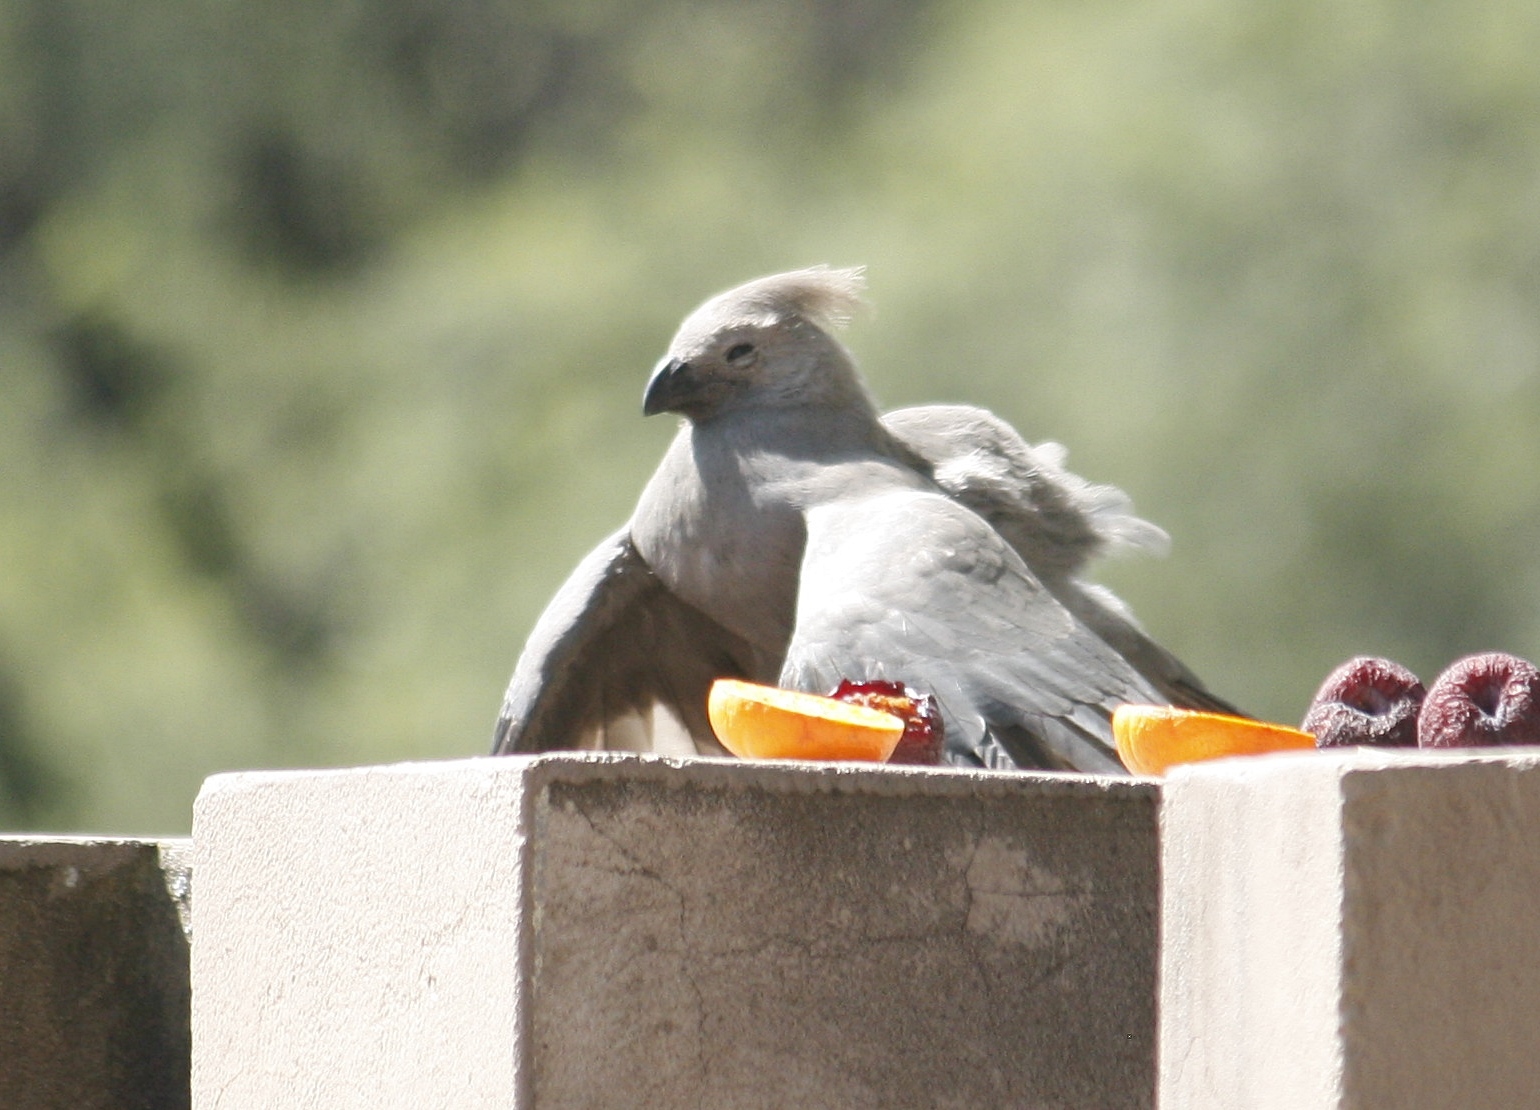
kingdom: Animalia
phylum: Chordata
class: Aves
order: Musophagiformes
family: Musophagidae
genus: Corythaixoides
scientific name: Corythaixoides concolor
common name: Grey go-away-bird
